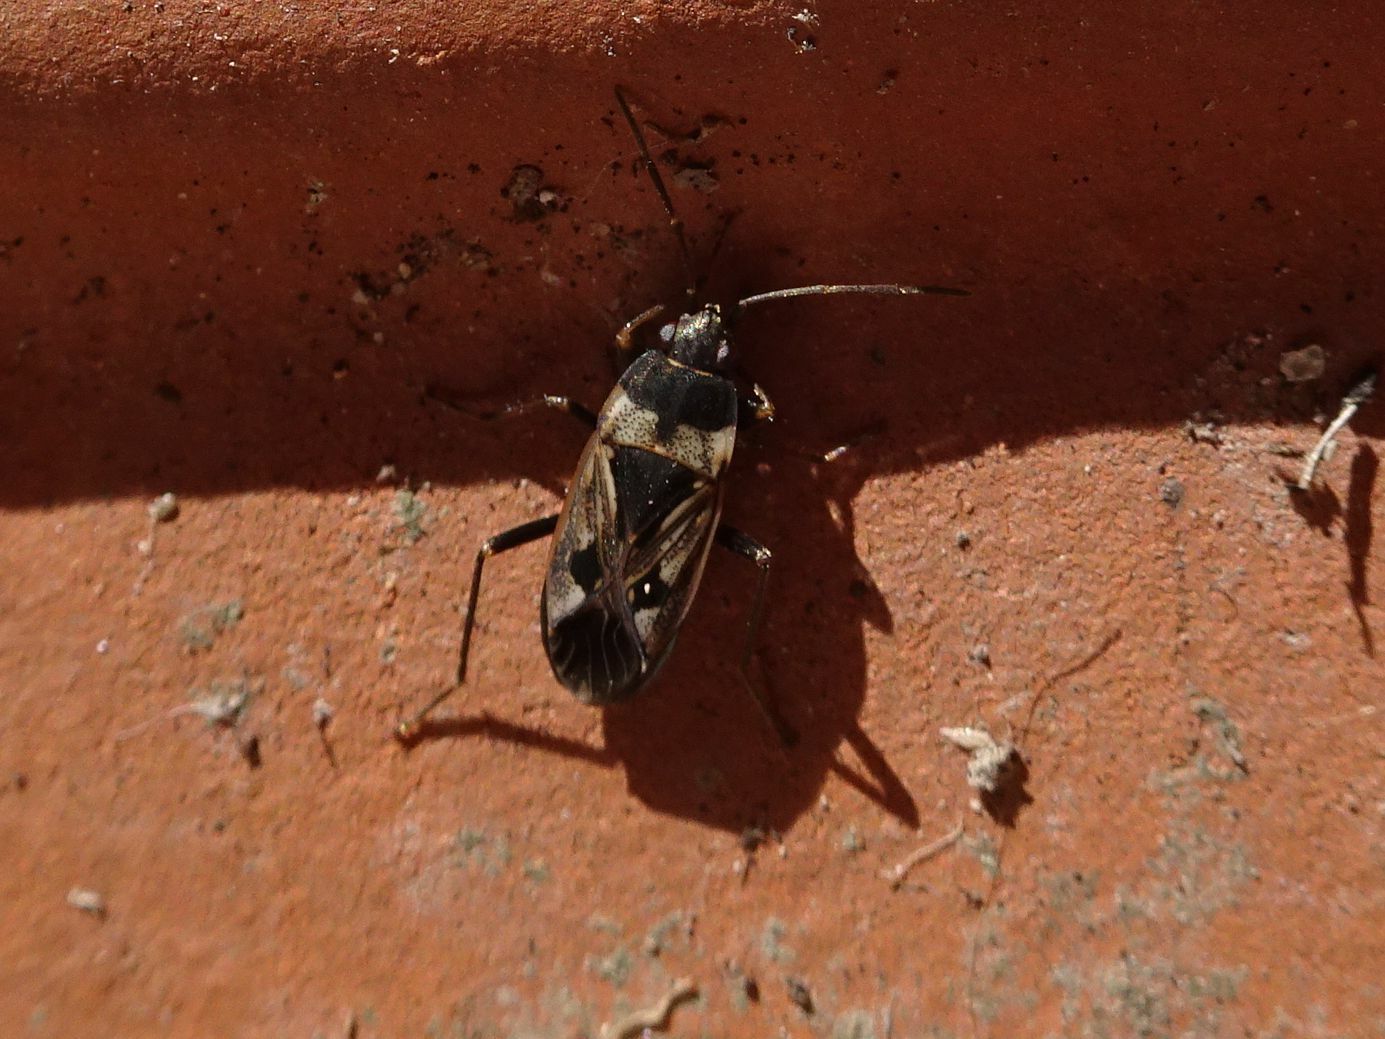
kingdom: Animalia
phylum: Arthropoda
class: Insecta
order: Hemiptera
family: Rhyparochromidae
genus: Rhyparochromus
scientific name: Rhyparochromus vulgaris
